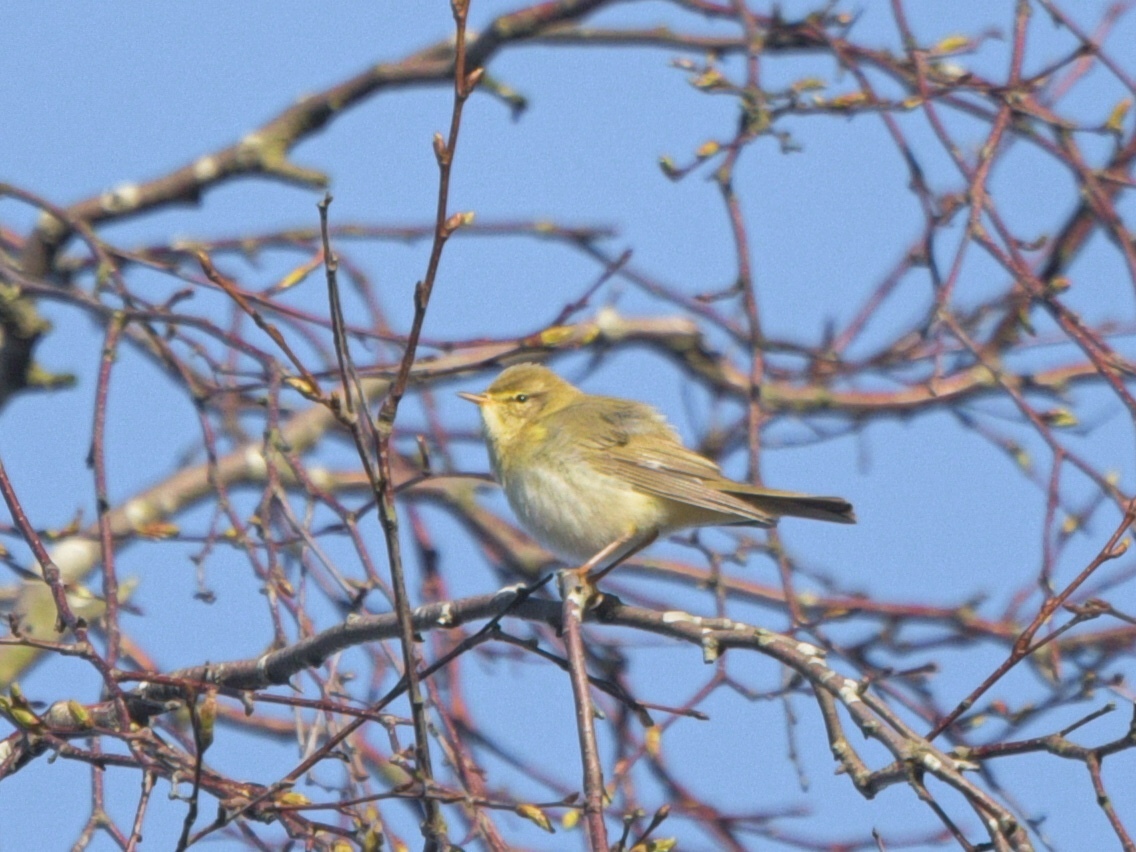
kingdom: Animalia
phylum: Chordata
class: Aves
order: Passeriformes
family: Phylloscopidae
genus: Phylloscopus
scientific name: Phylloscopus trochilus
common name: Willow warbler
